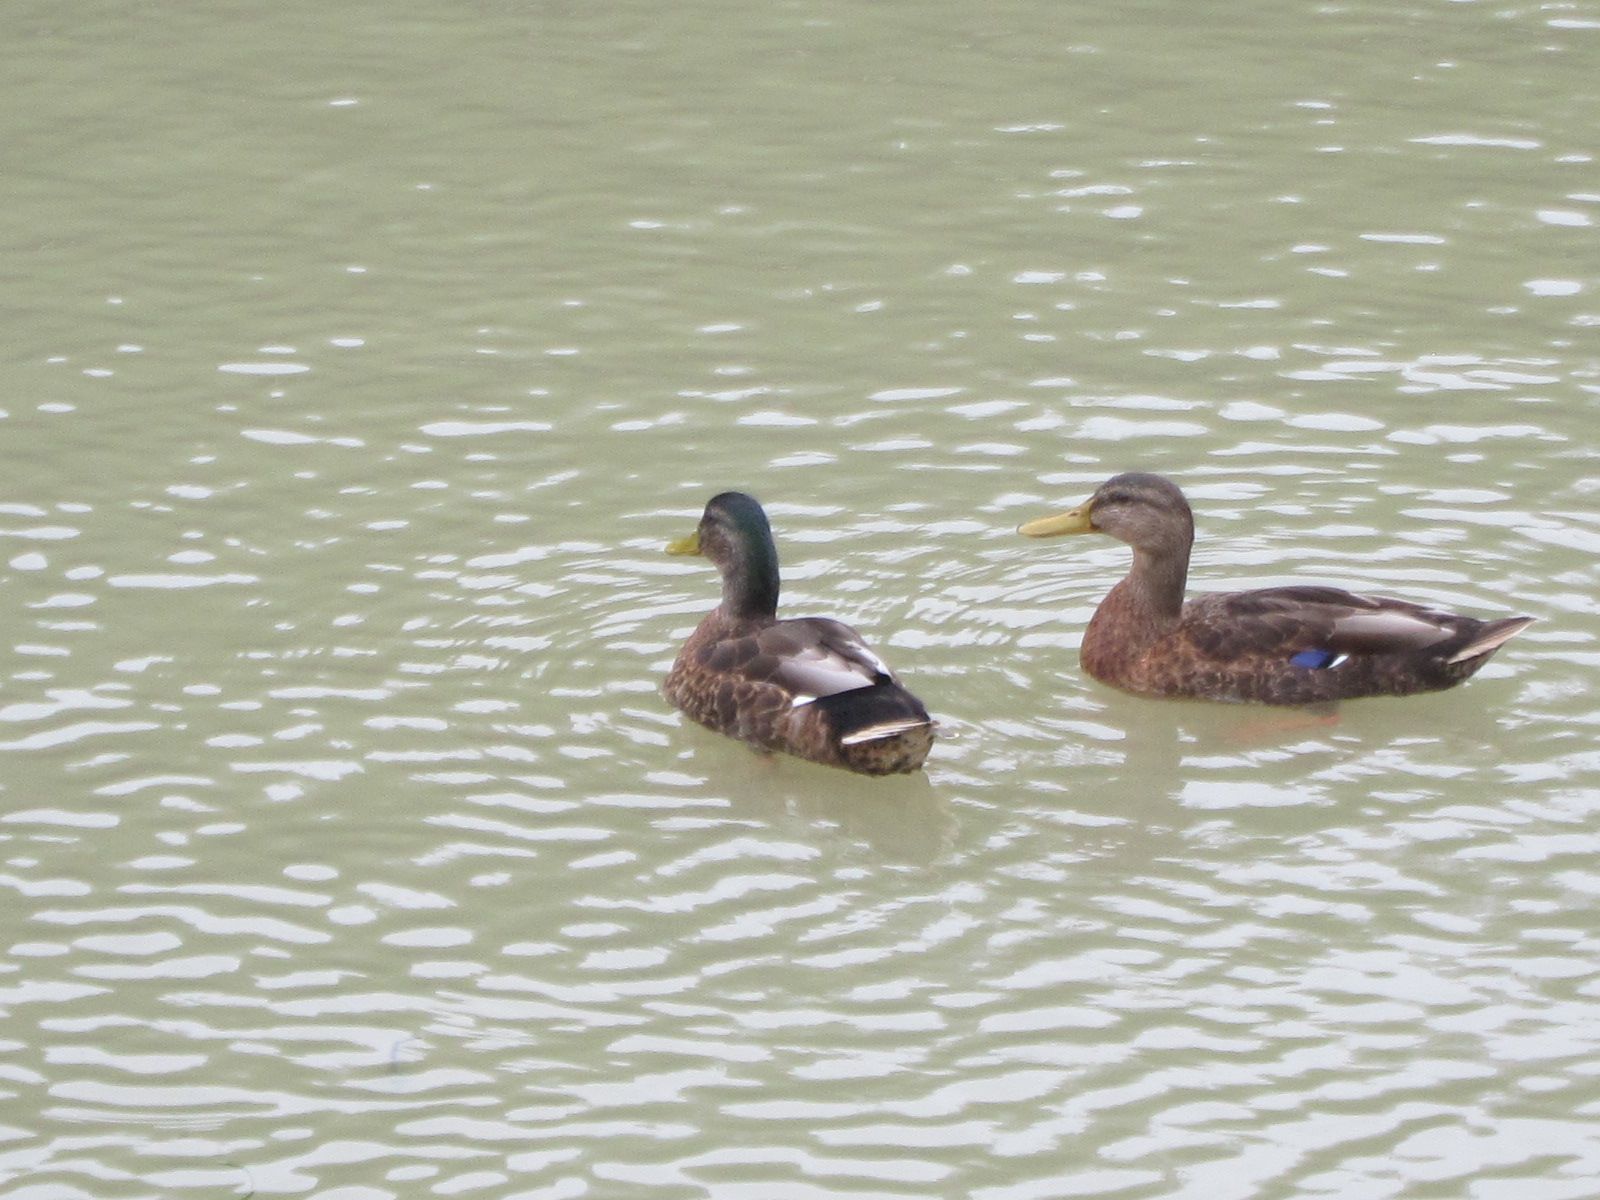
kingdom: Animalia
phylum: Chordata
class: Aves
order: Anseriformes
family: Anatidae
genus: Anas
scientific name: Anas
